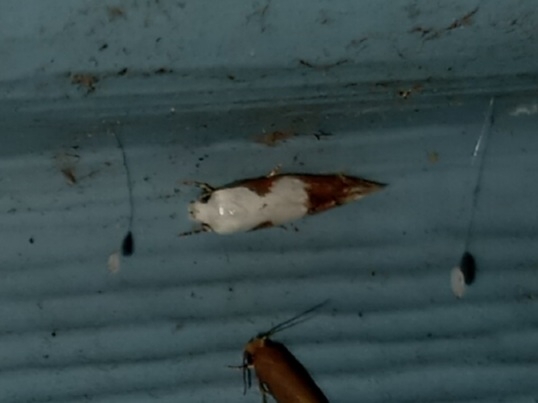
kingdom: Animalia
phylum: Arthropoda
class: Insecta
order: Lepidoptera
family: Momphidae
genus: Mompha
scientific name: Mompha circumscriptella
